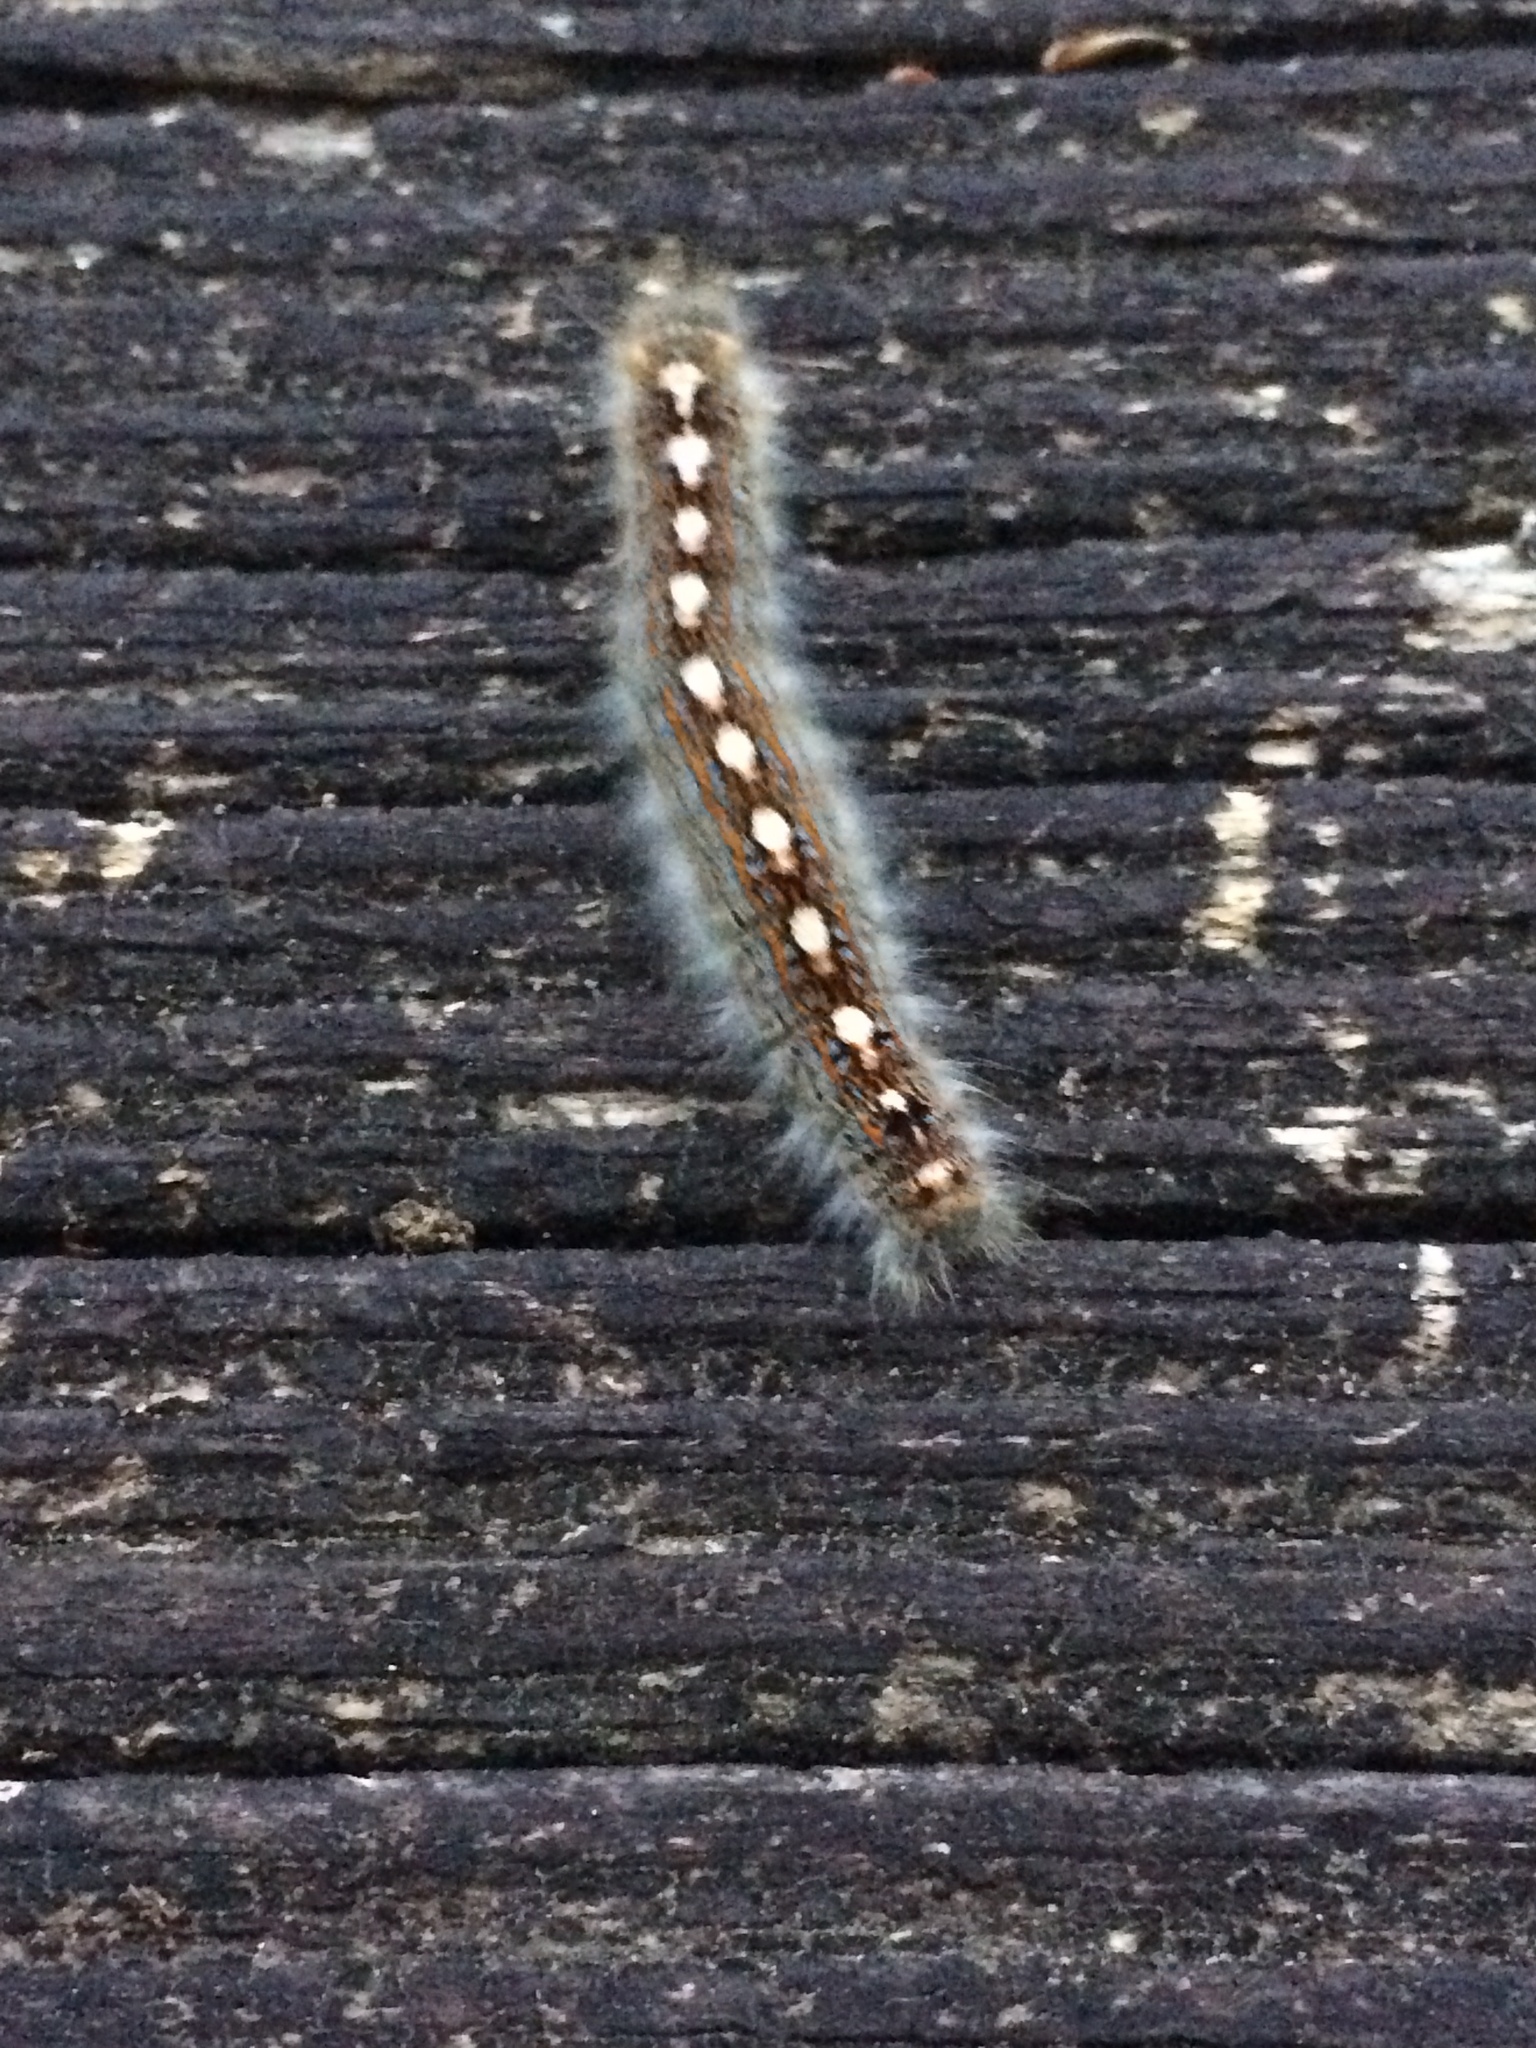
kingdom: Animalia
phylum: Arthropoda
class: Insecta
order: Lepidoptera
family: Lasiocampidae
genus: Malacosoma
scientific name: Malacosoma disstria
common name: Forest tent caterpillar
